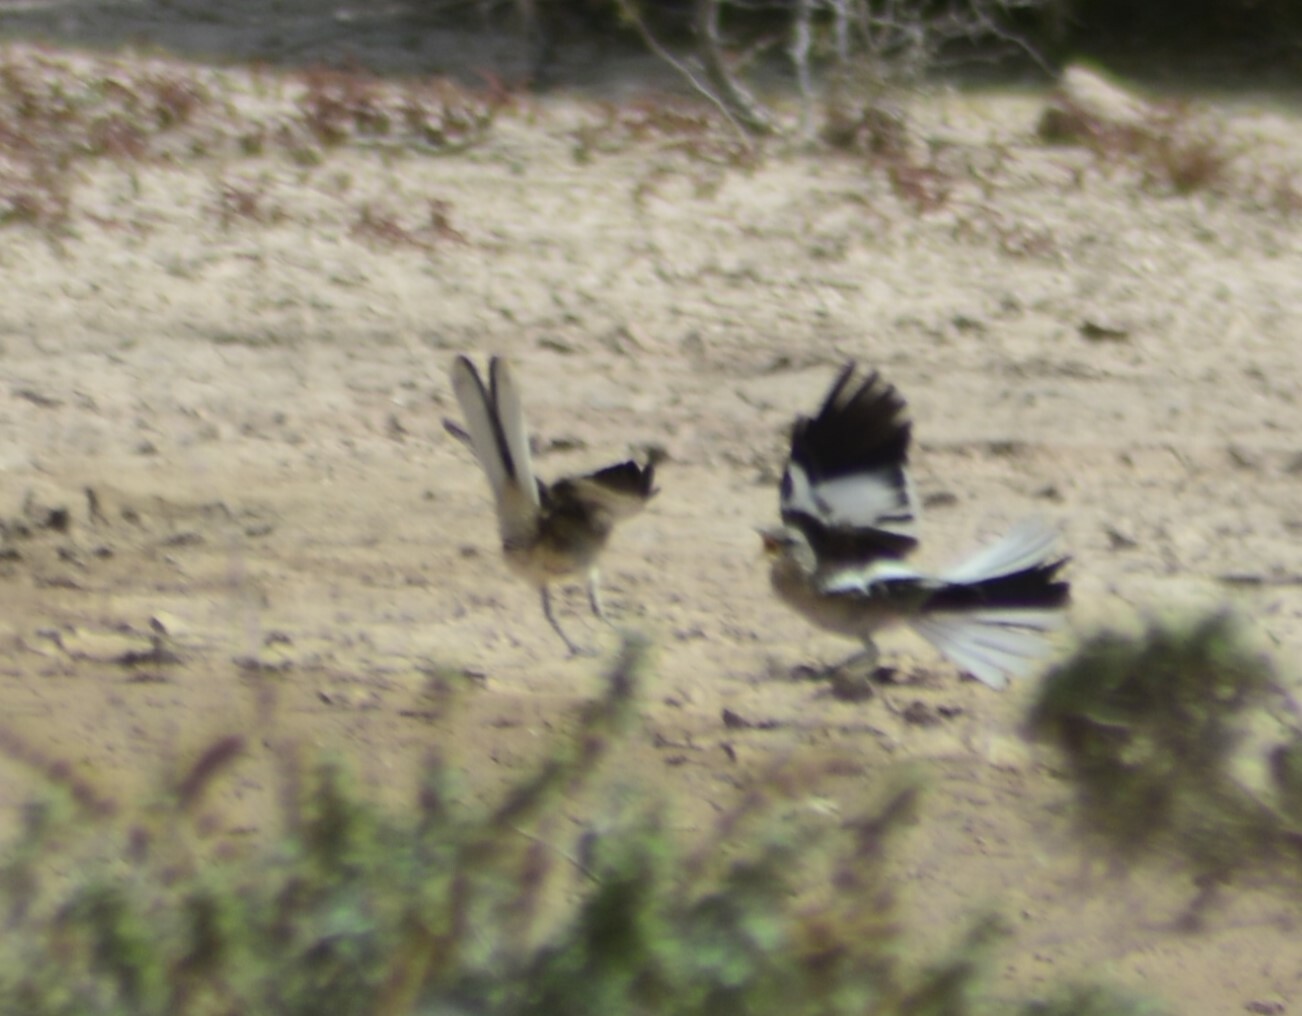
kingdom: Animalia
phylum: Chordata
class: Aves
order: Passeriformes
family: Mimidae
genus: Mimus
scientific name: Mimus triurus
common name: White-banded mockingbird
